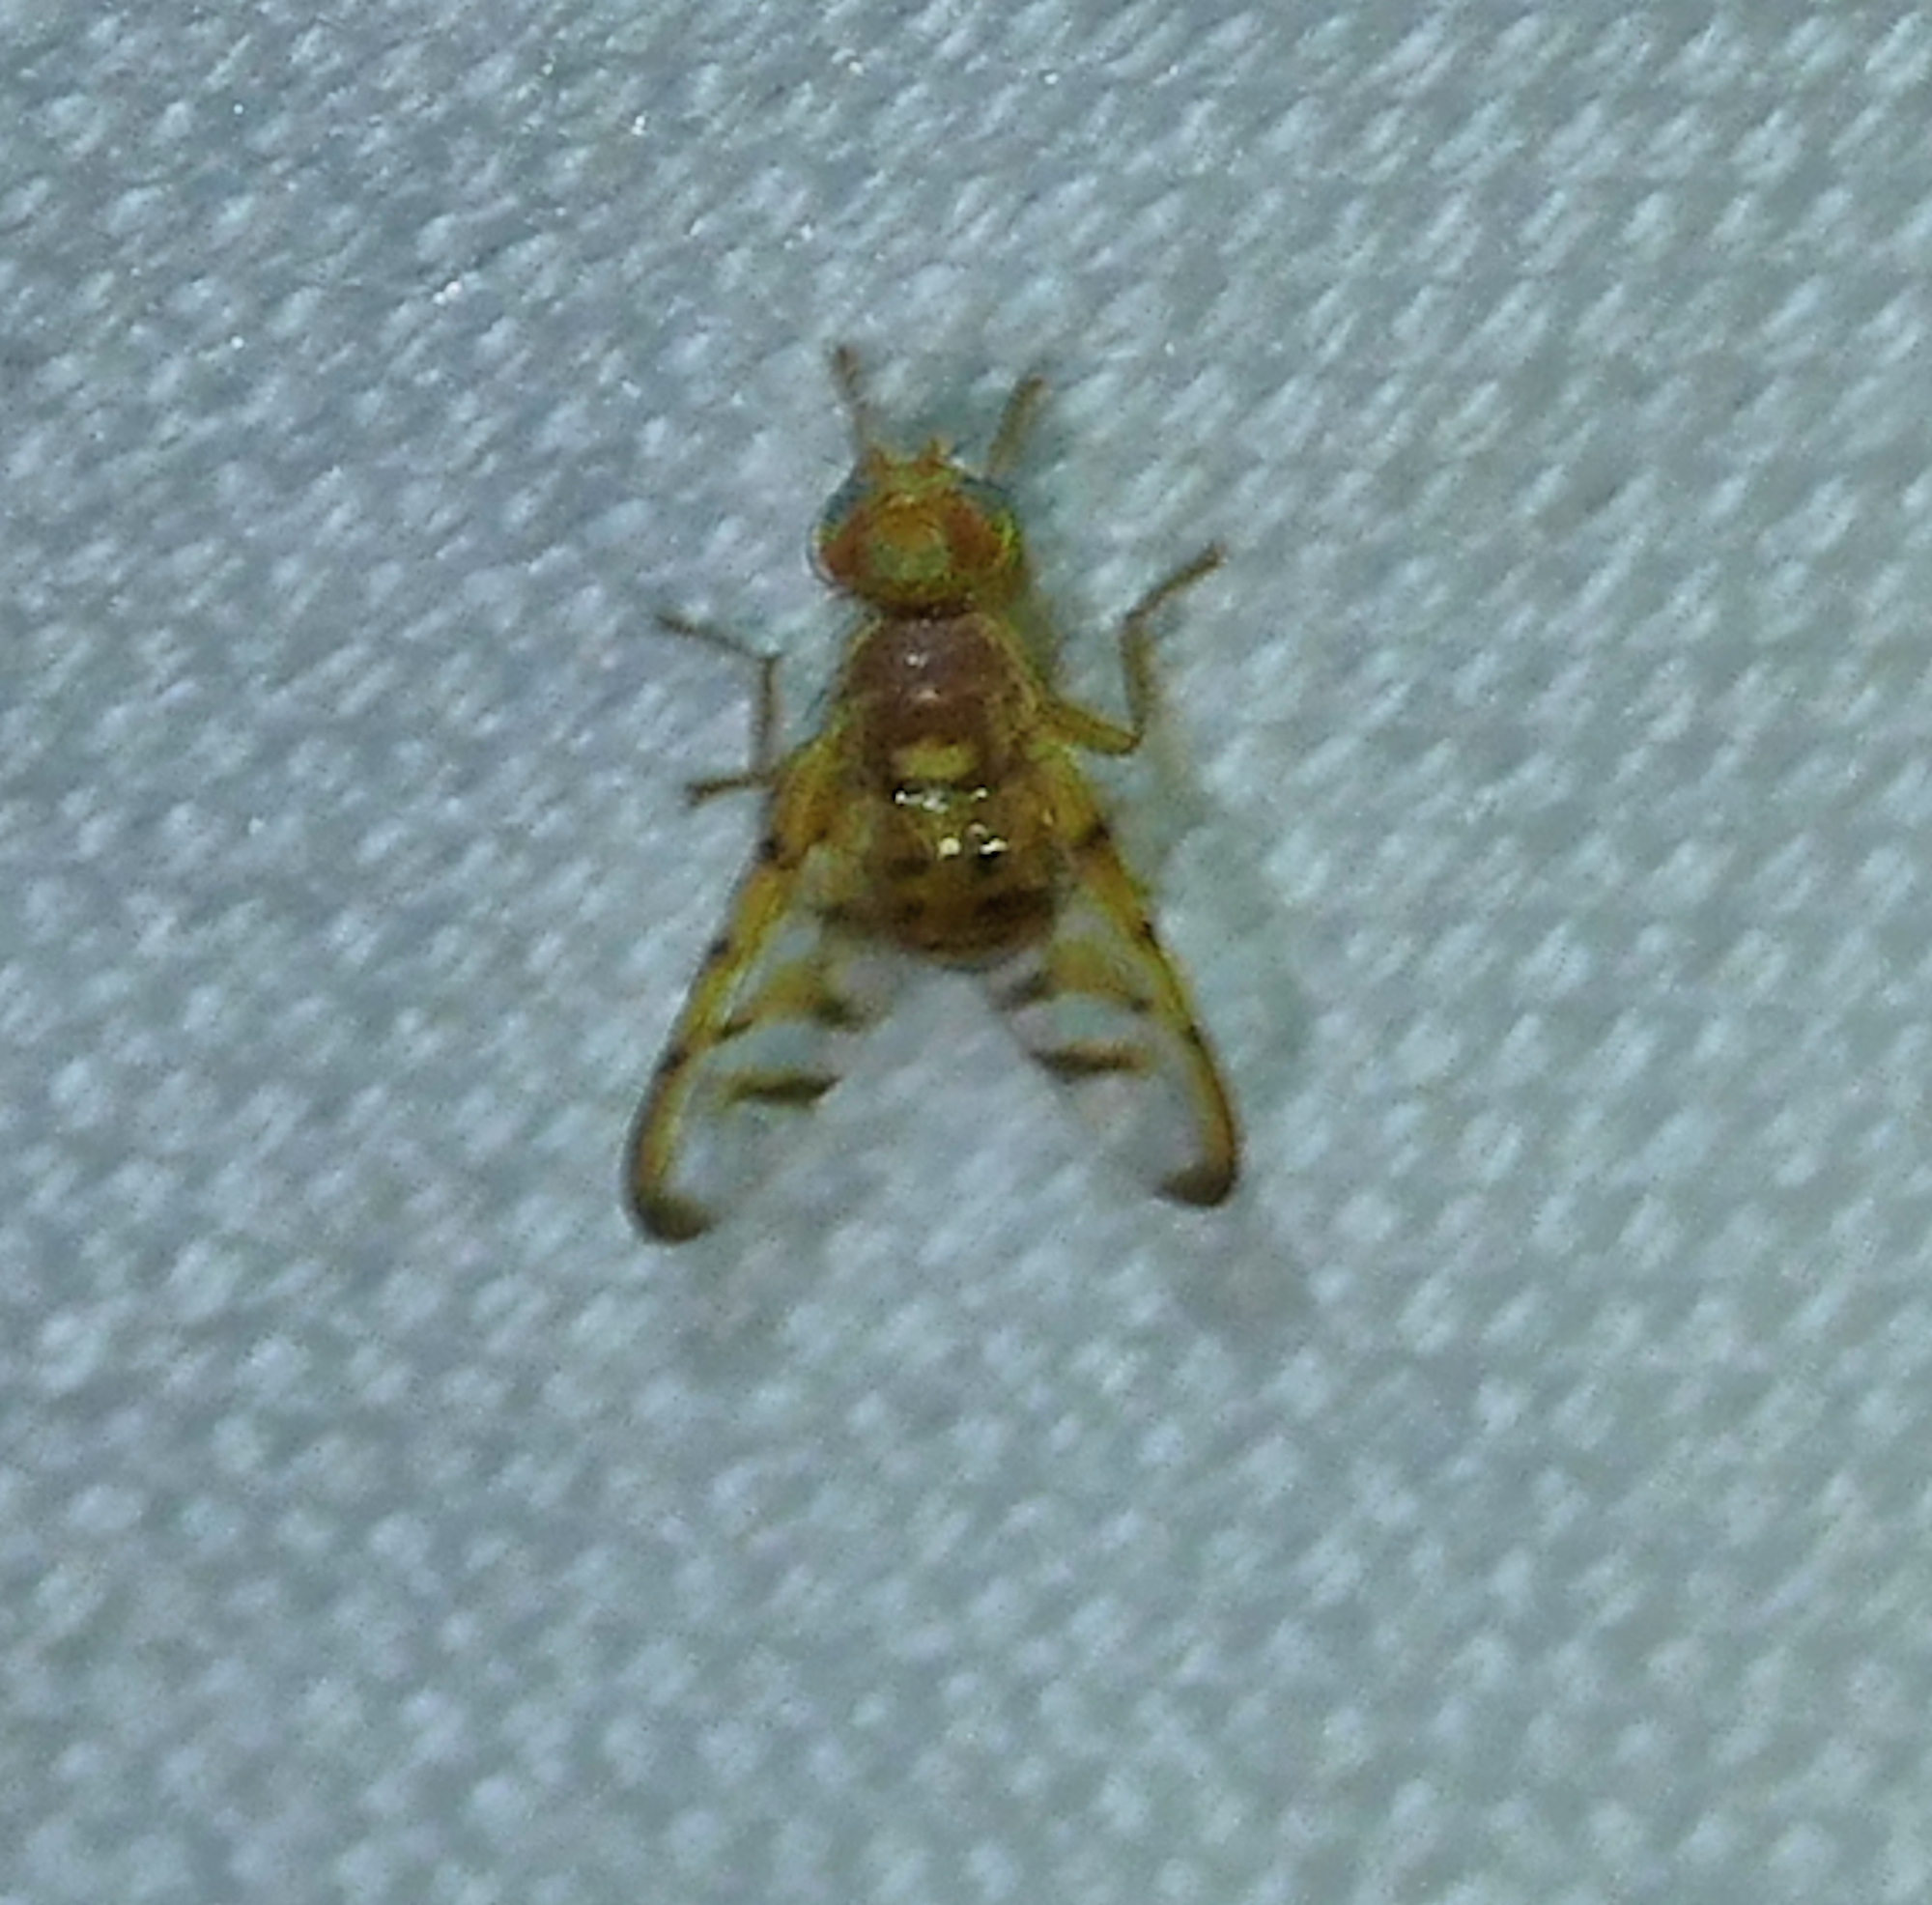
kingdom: Animalia
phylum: Arthropoda
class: Insecta
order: Diptera
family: Tephritidae
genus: Paraterellia
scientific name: Paraterellia varipennis
